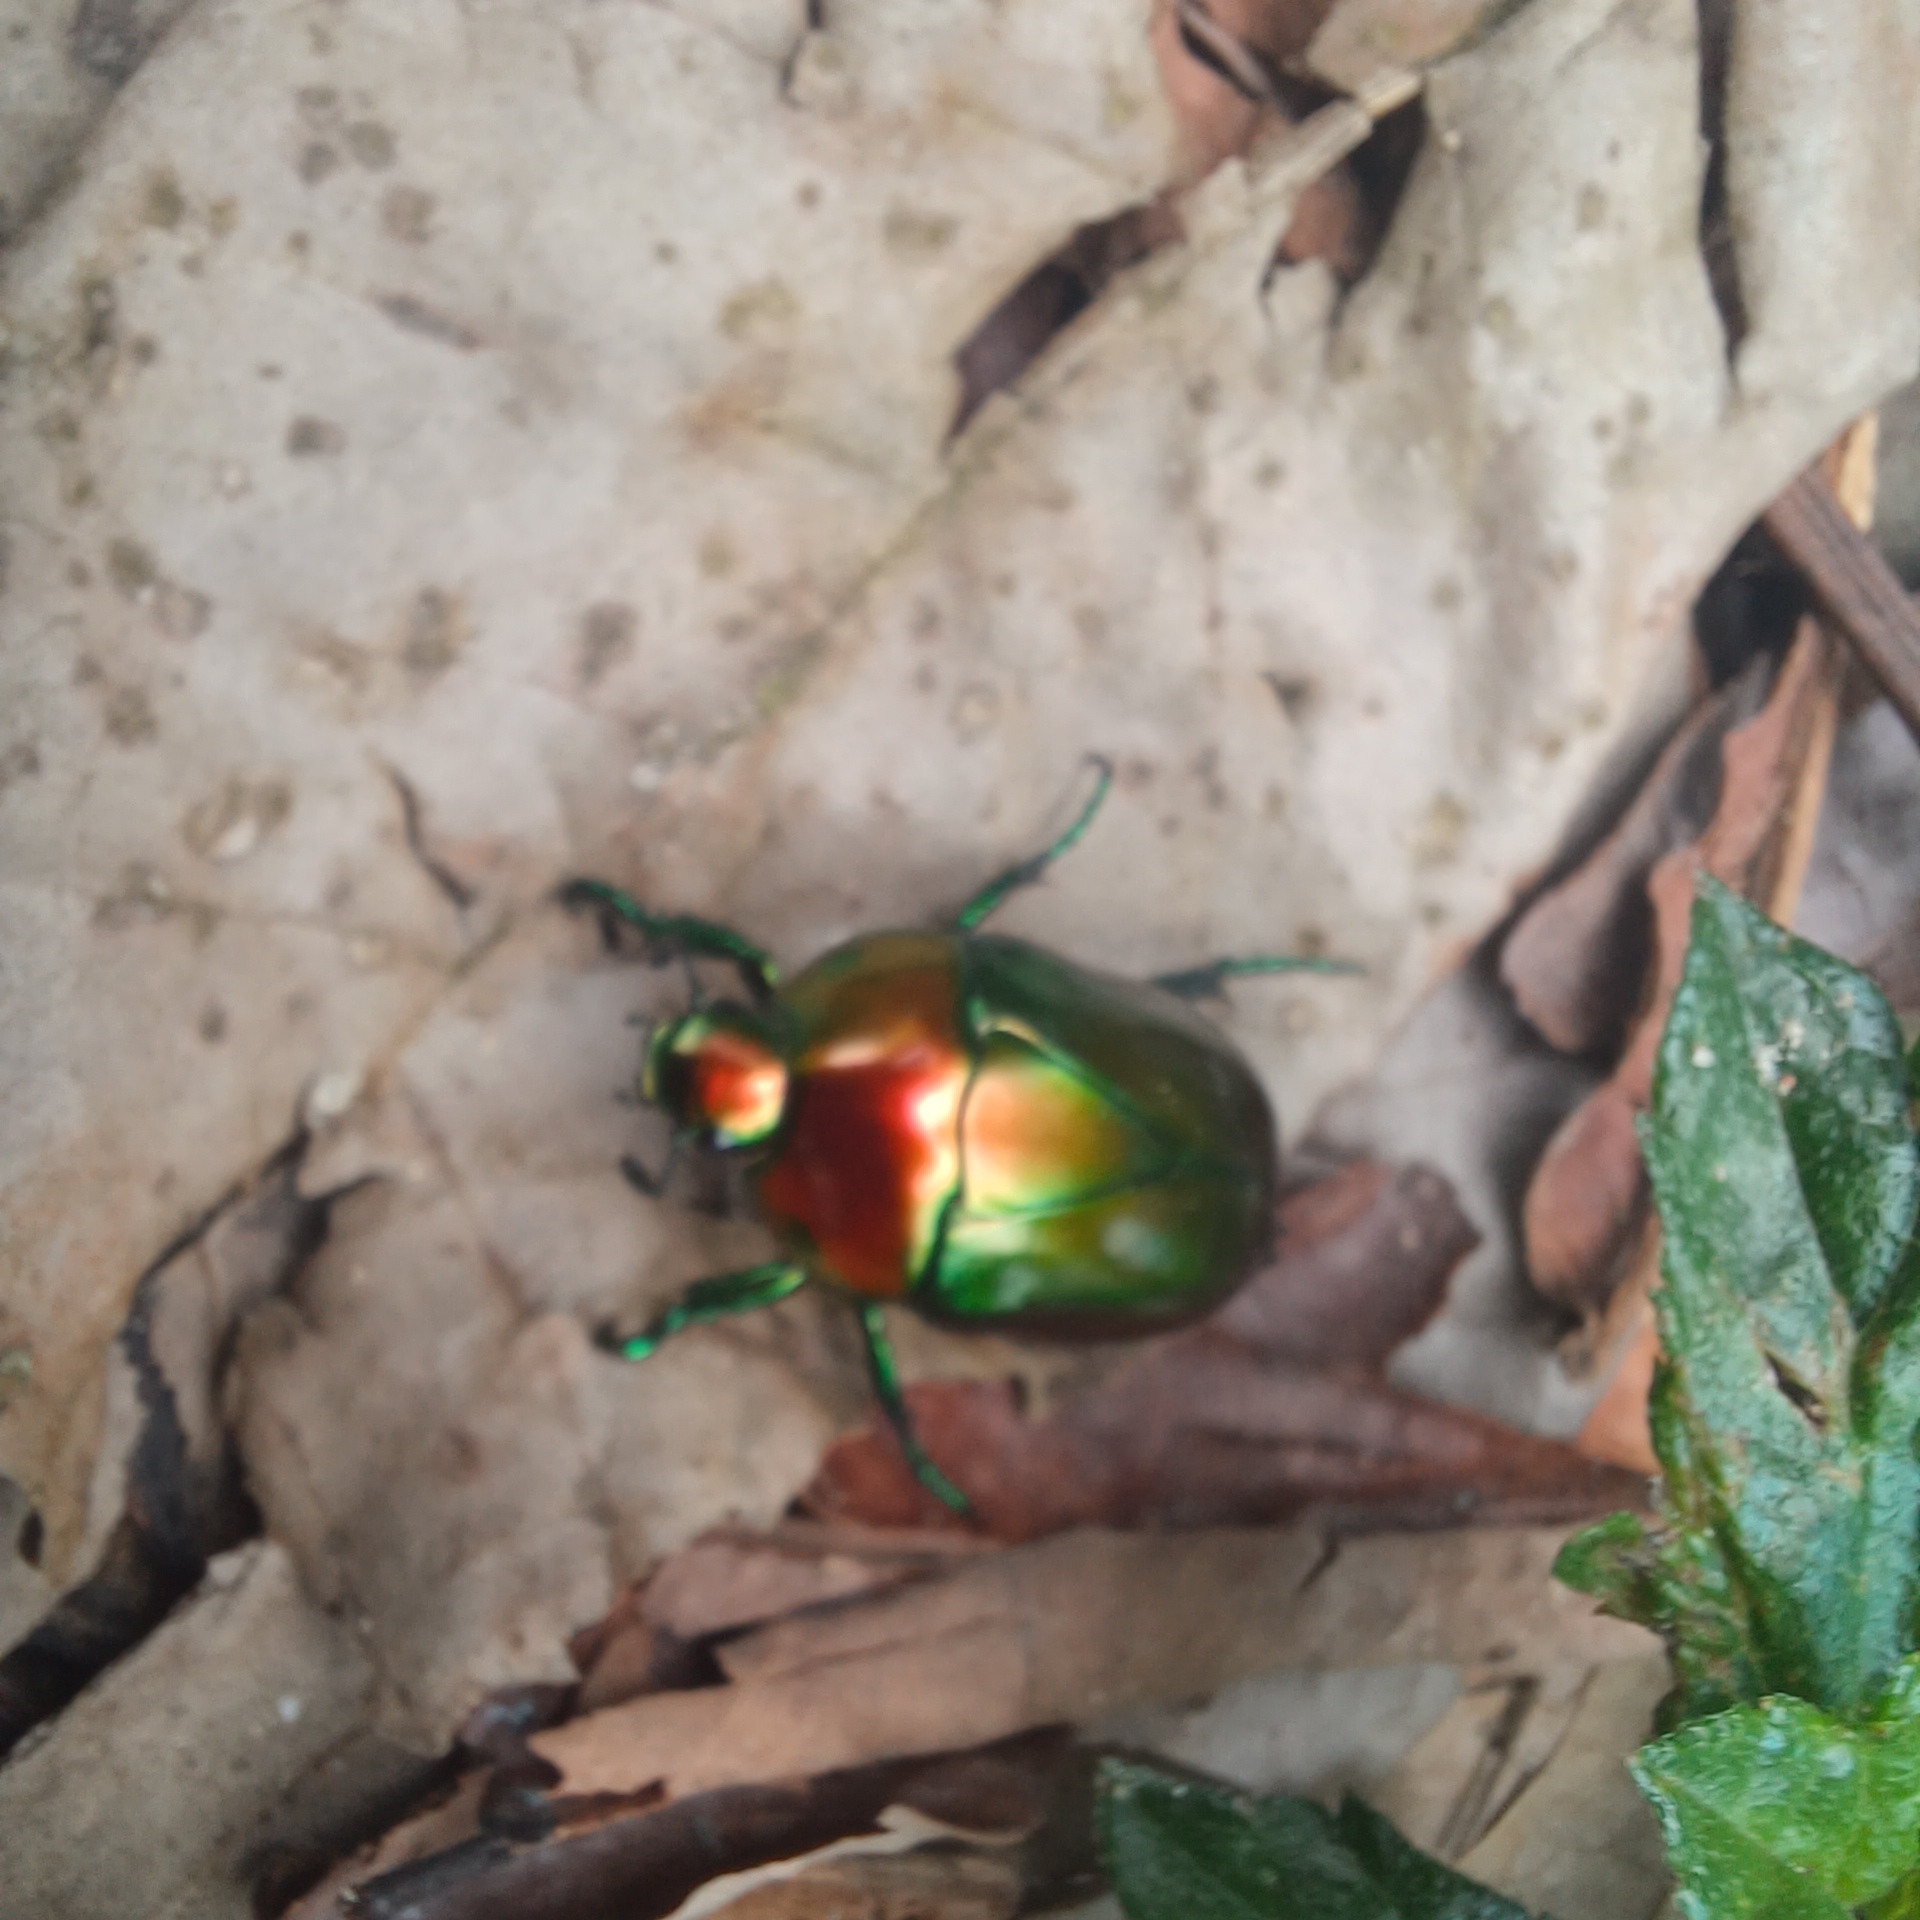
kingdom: Animalia
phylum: Arthropoda
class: Insecta
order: Coleoptera
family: Scarabaeidae
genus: Macraspis
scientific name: Macraspis chrysis
